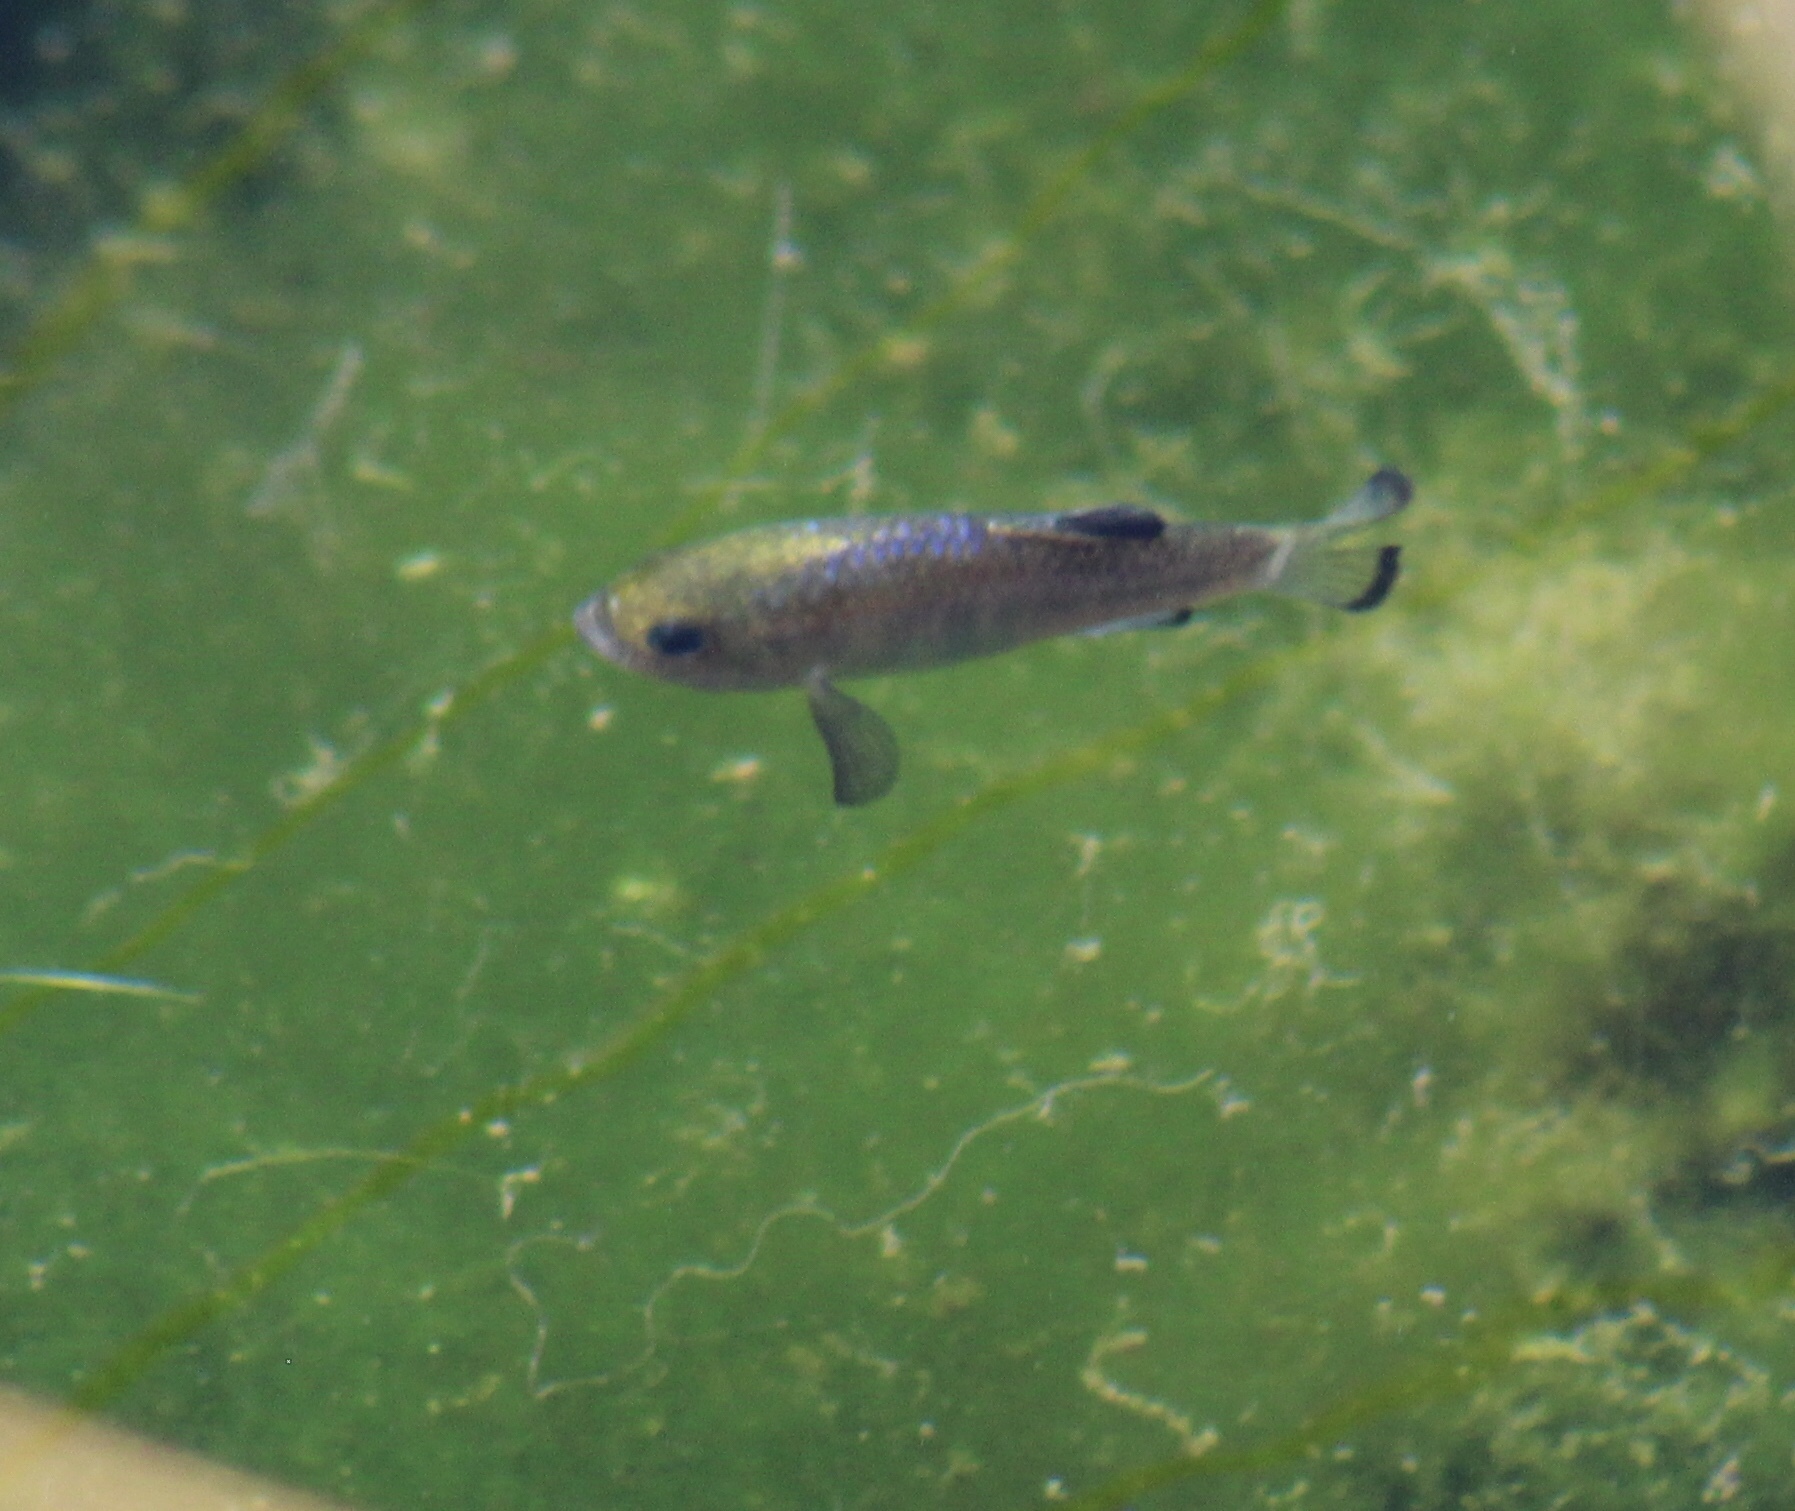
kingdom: Animalia
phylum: Chordata
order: Cyprinodontiformes
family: Cyprinodontidae
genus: Cyprinodon
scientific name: Cyprinodon nevadensis
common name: Amargosa pupfish
